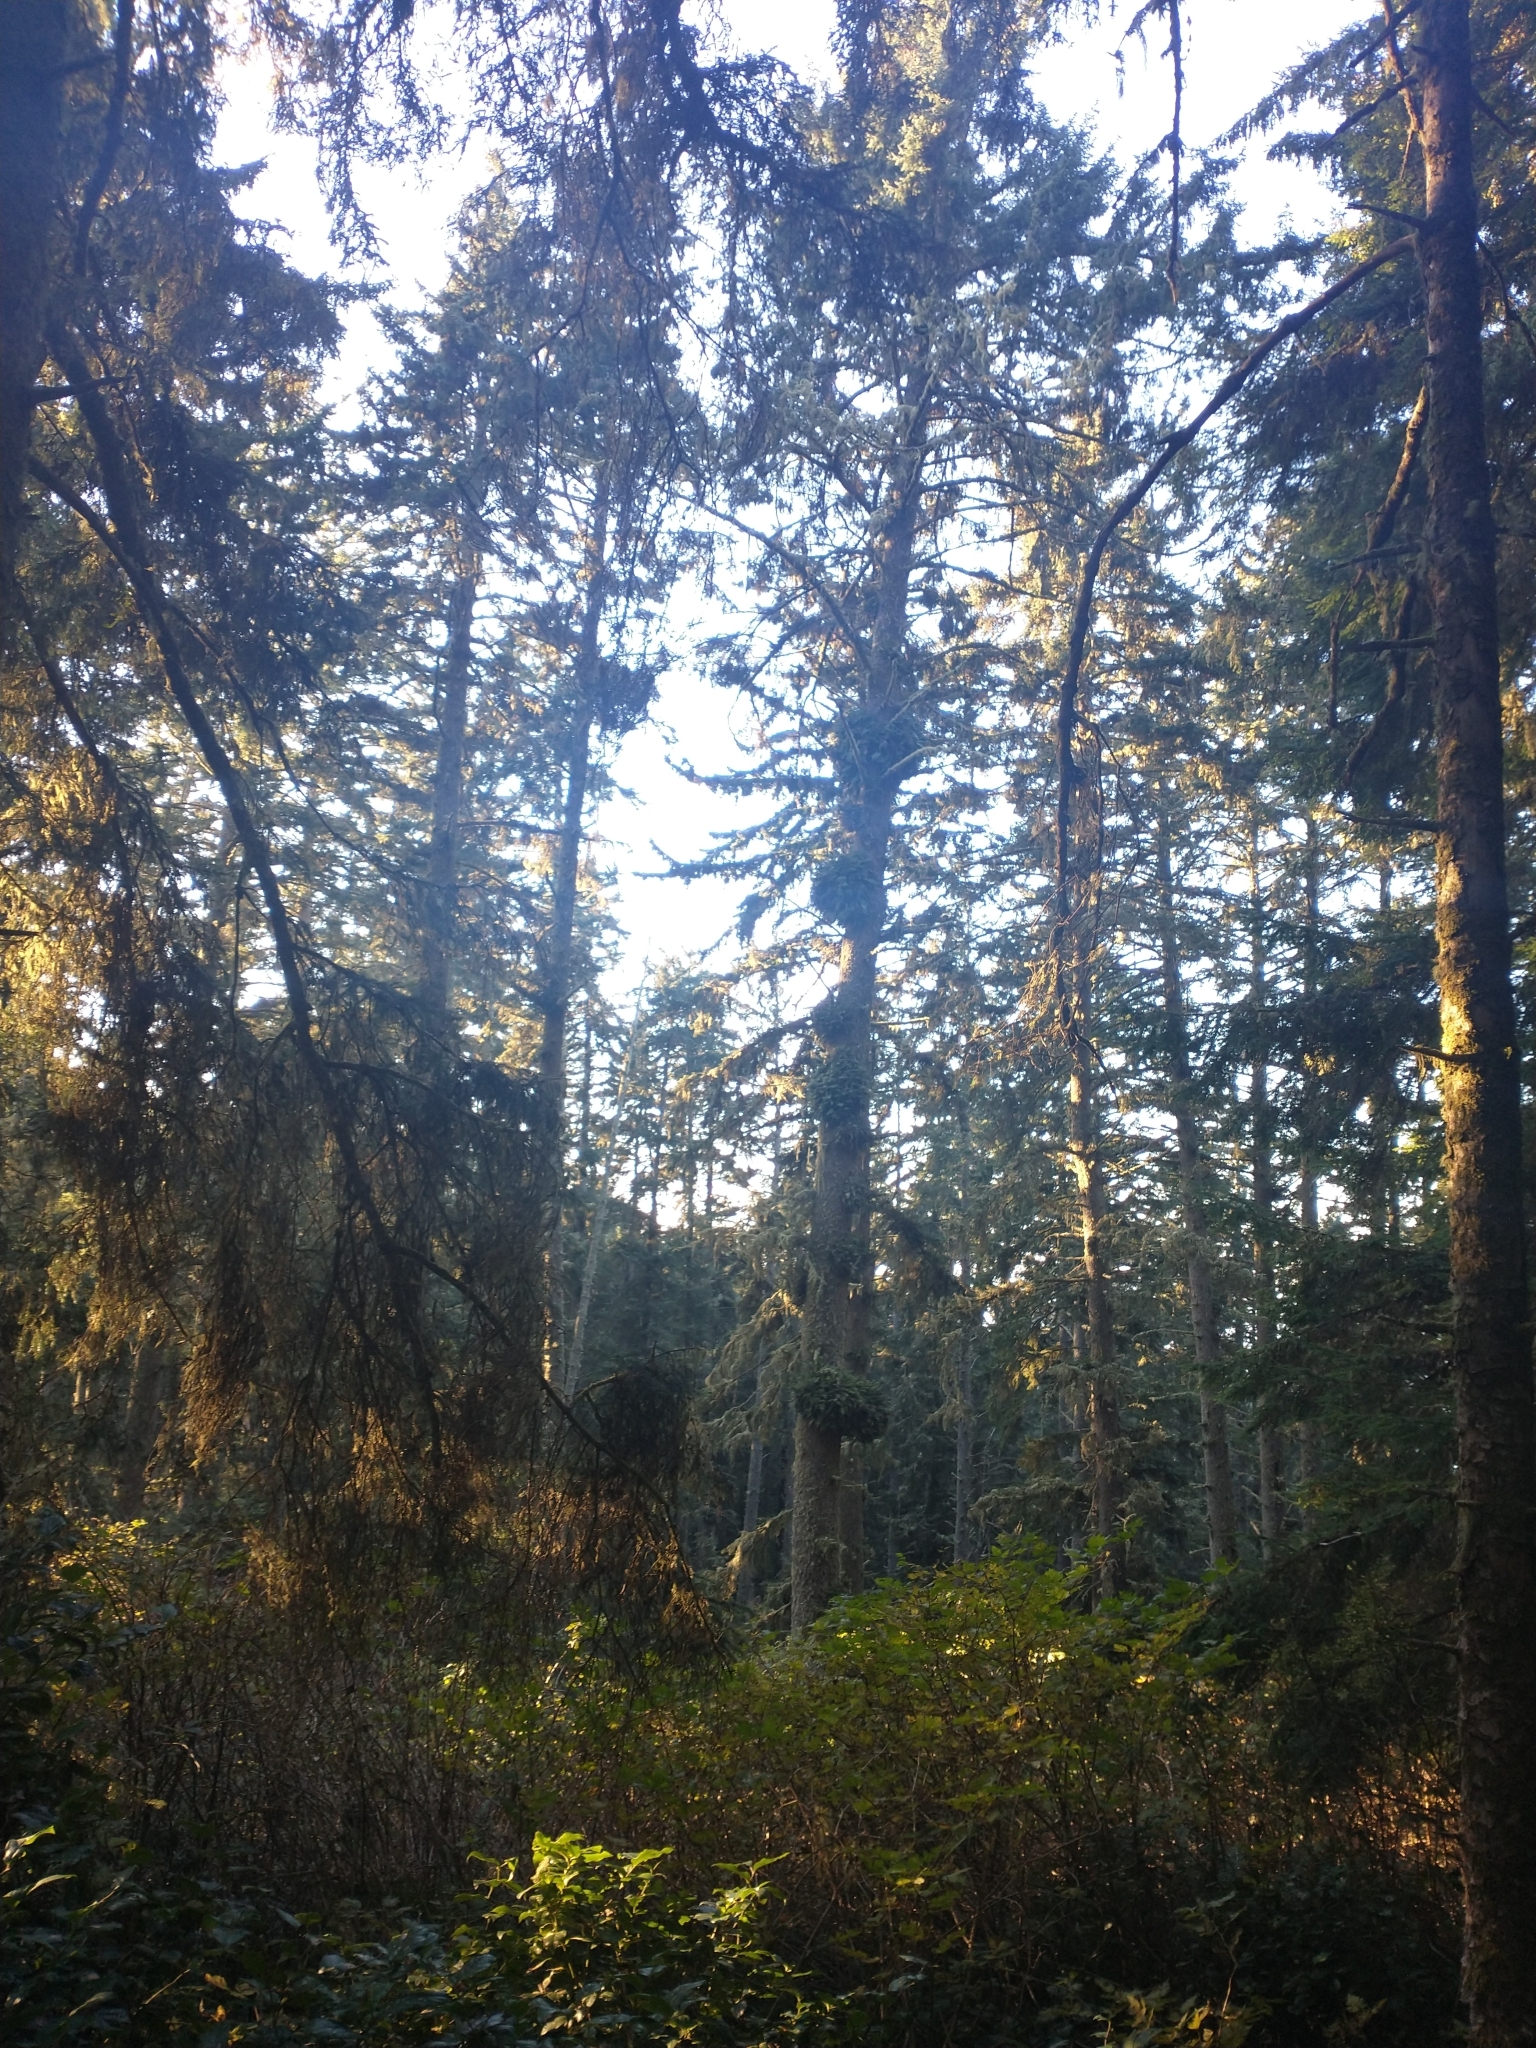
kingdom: Plantae
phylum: Tracheophyta
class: Pinopsida
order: Pinales
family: Pinaceae
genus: Picea
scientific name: Picea sitchensis
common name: Sitka spruce
